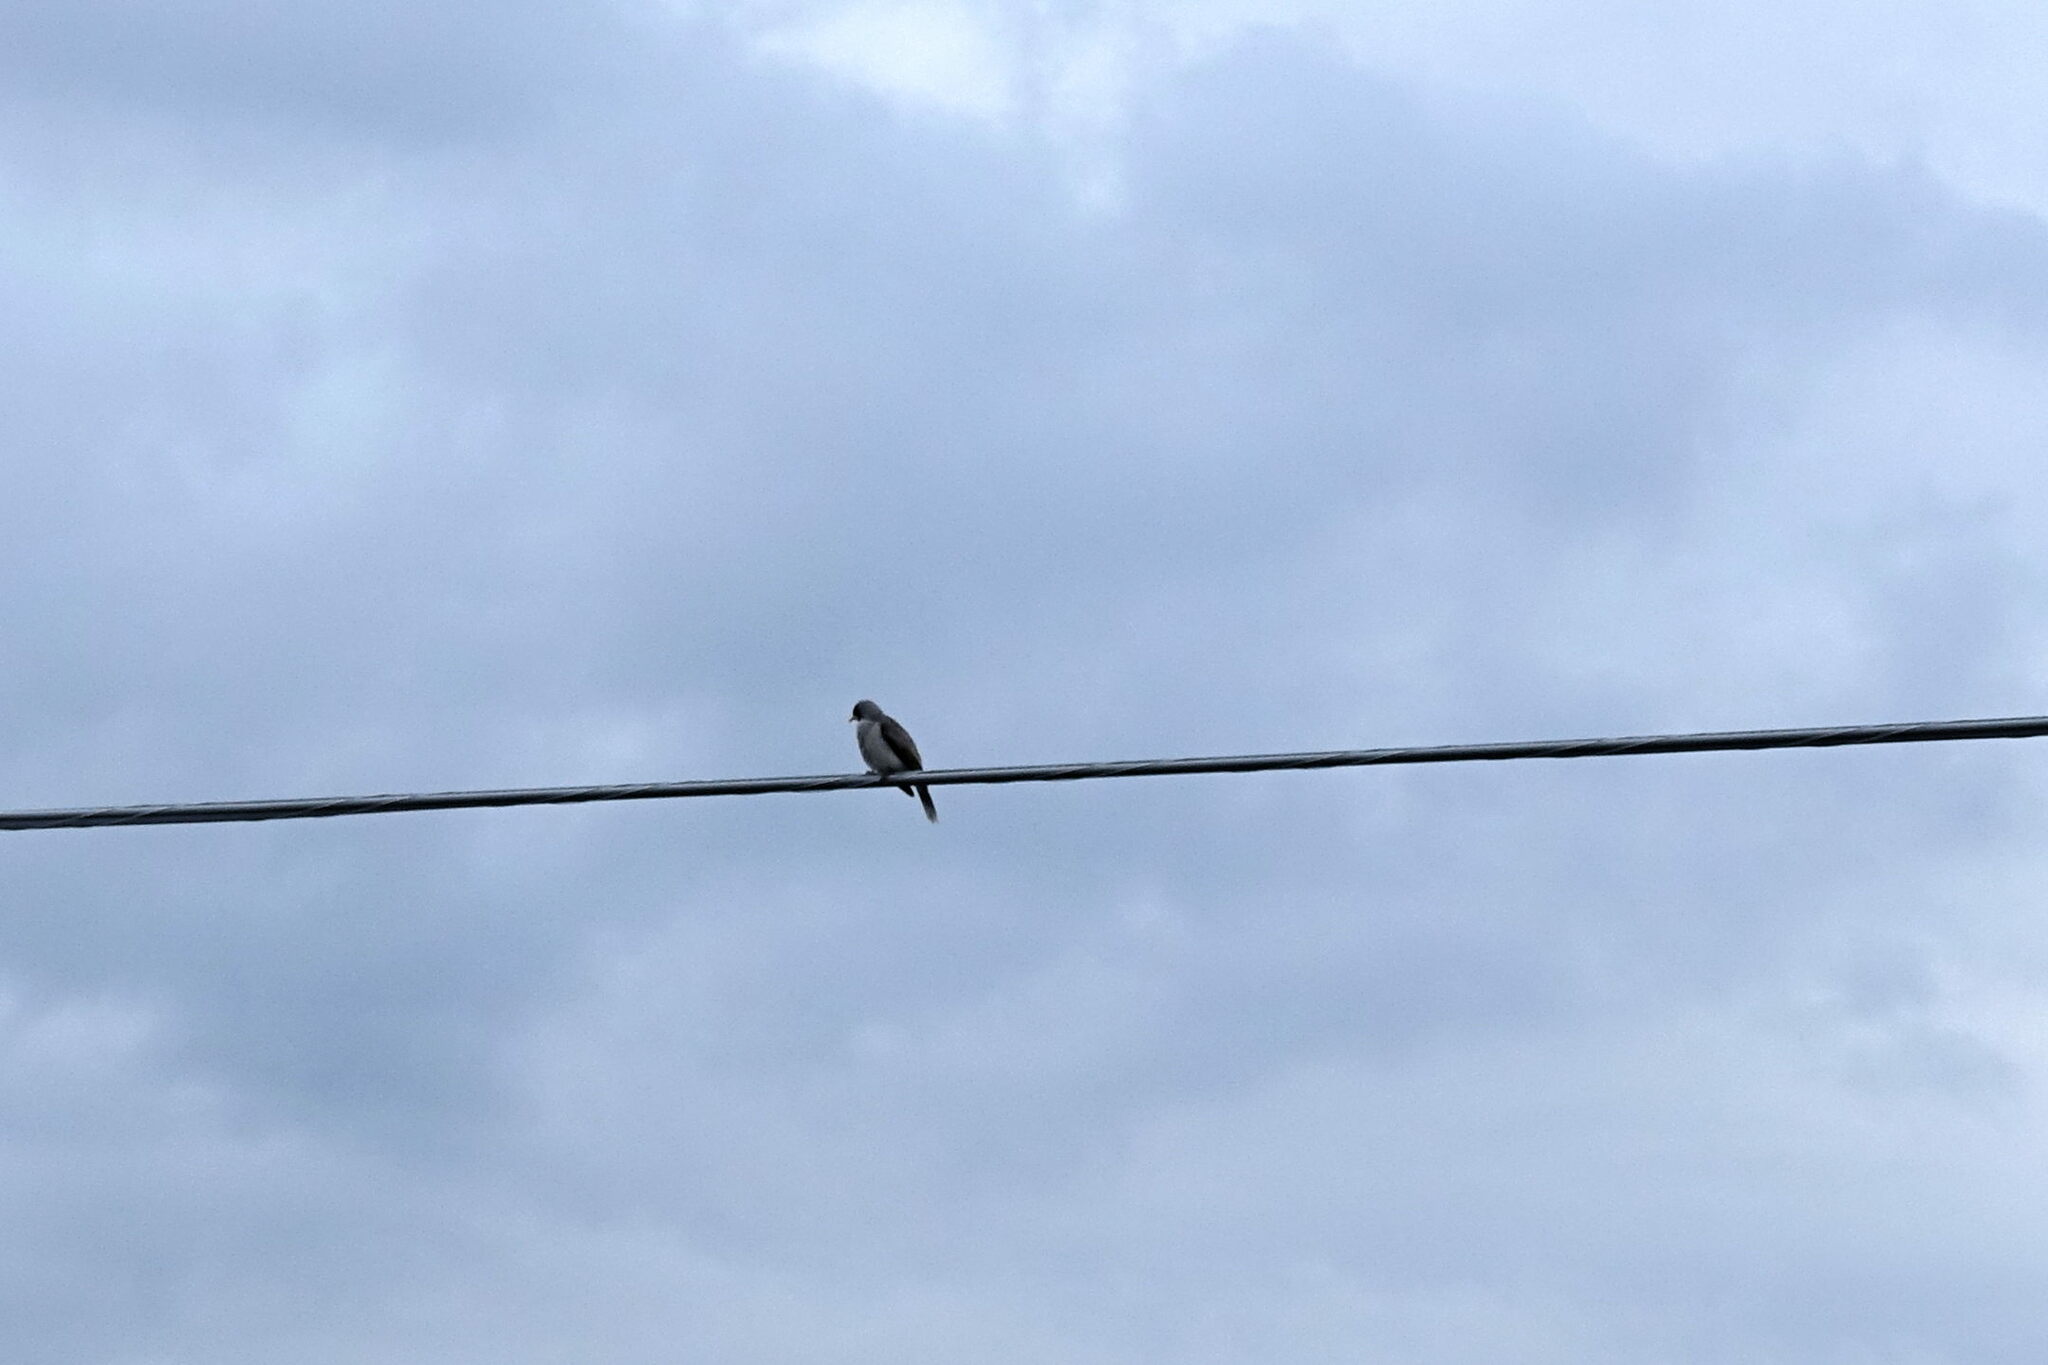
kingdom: Animalia
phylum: Chordata
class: Aves
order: Passeriformes
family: Meliphagidae
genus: Manorina
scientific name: Manorina melanocephala
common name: Noisy miner
